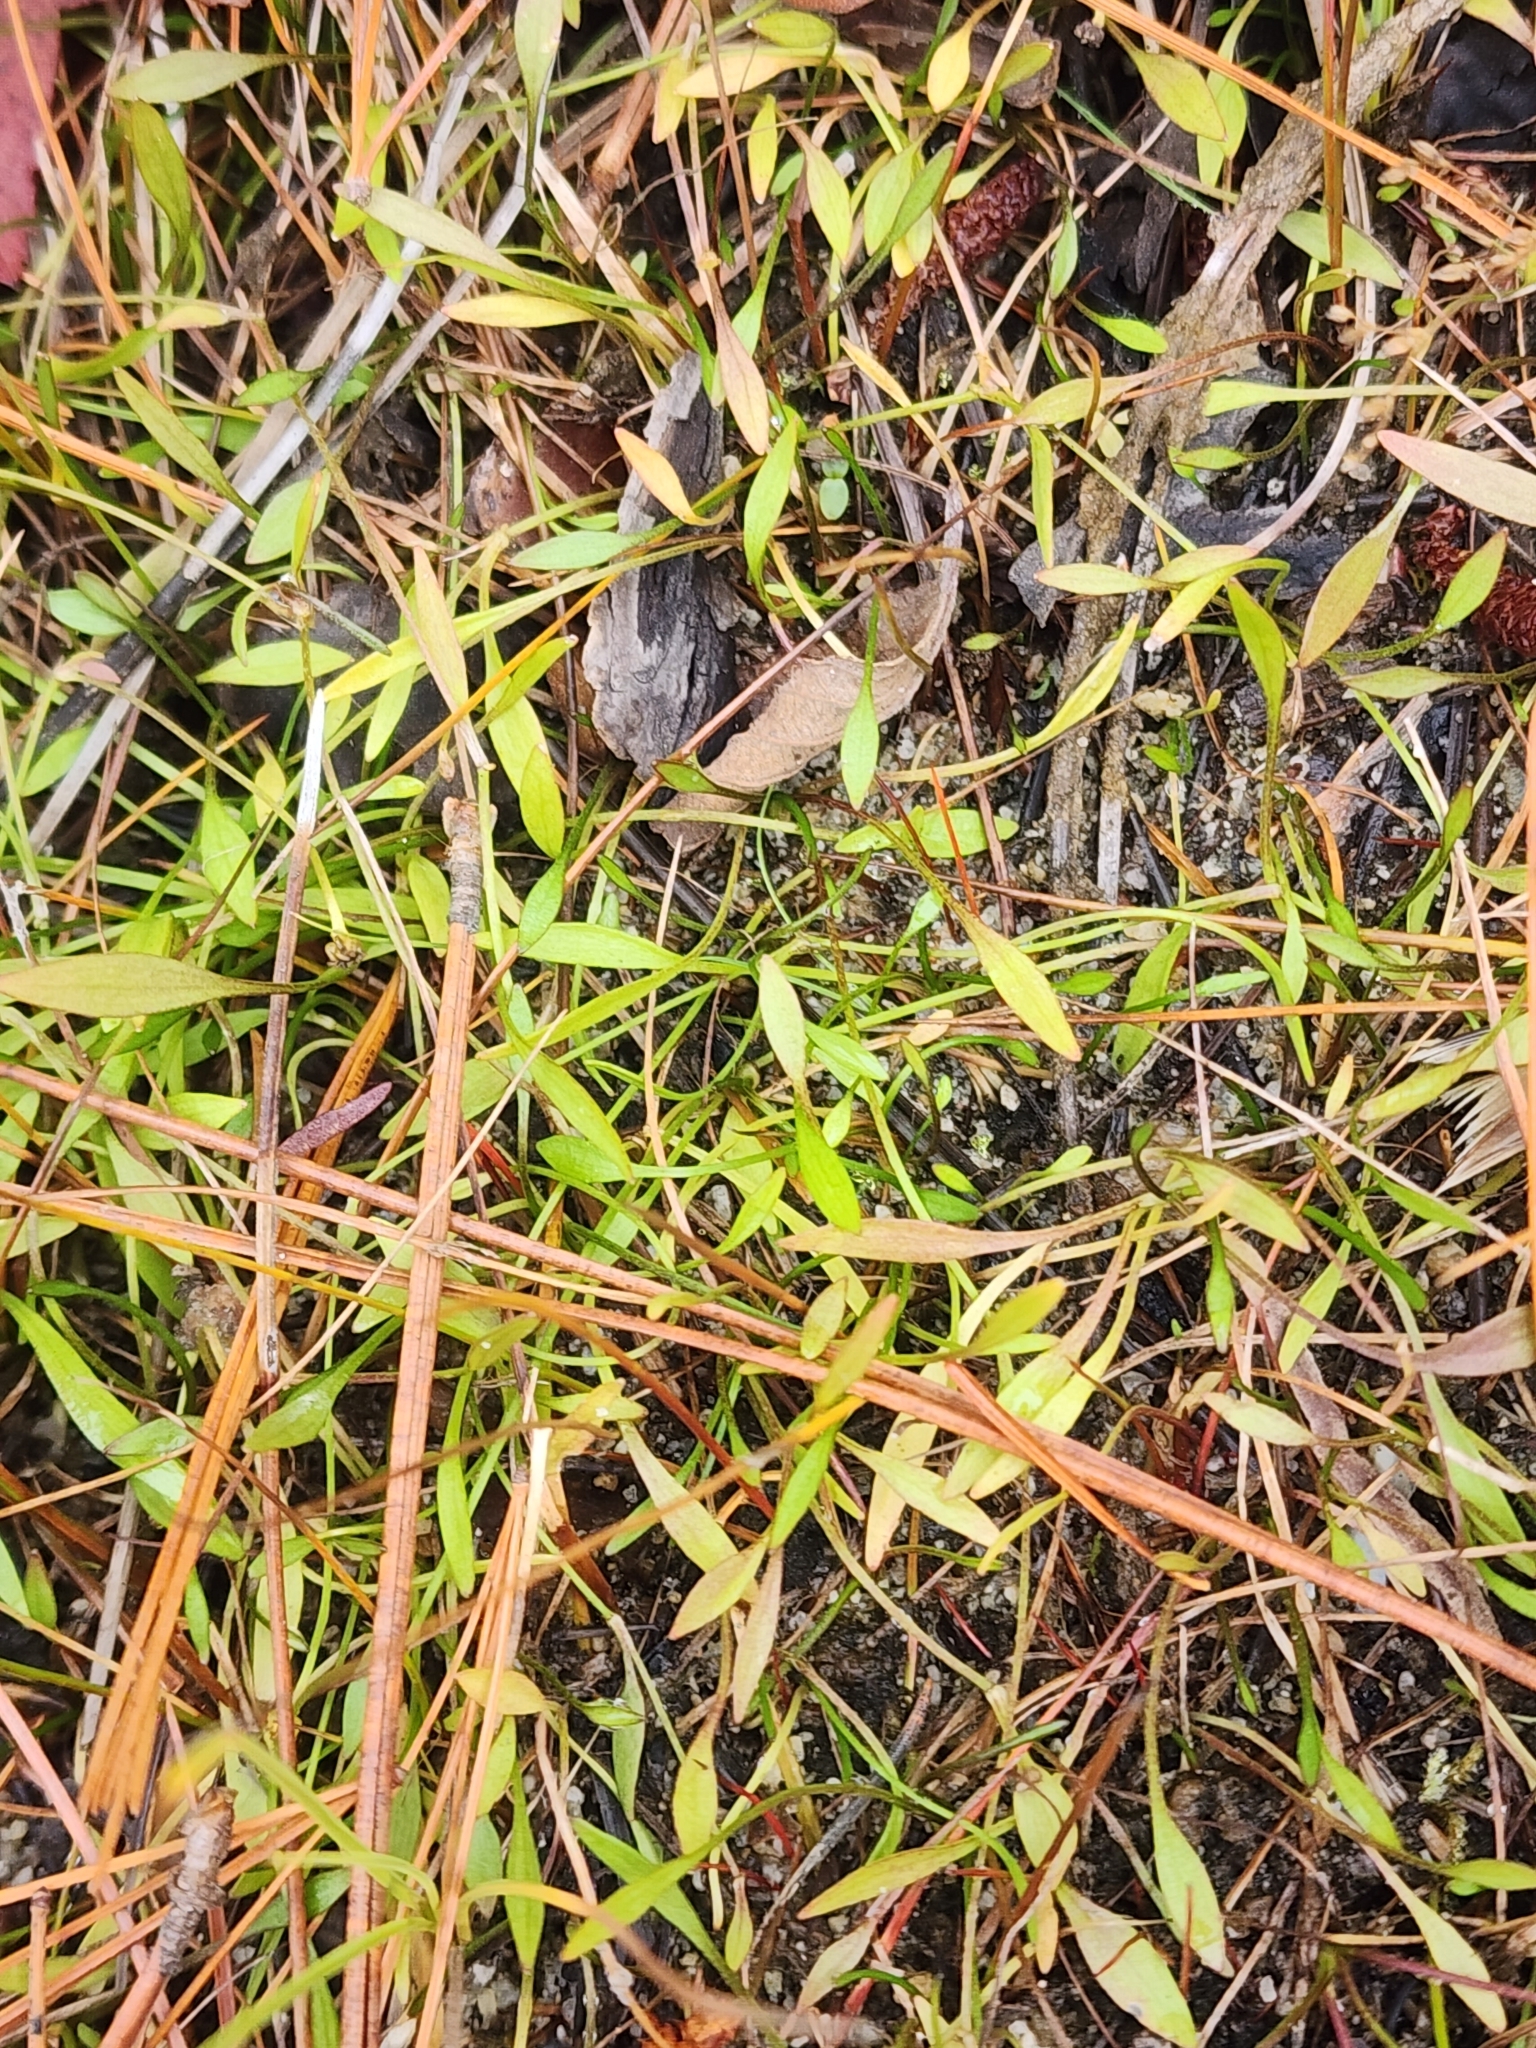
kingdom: Plantae
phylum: Tracheophyta
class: Magnoliopsida
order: Ranunculales
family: Ranunculaceae
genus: Ranunculus
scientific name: Ranunculus reptans
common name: Creeping spearwort
